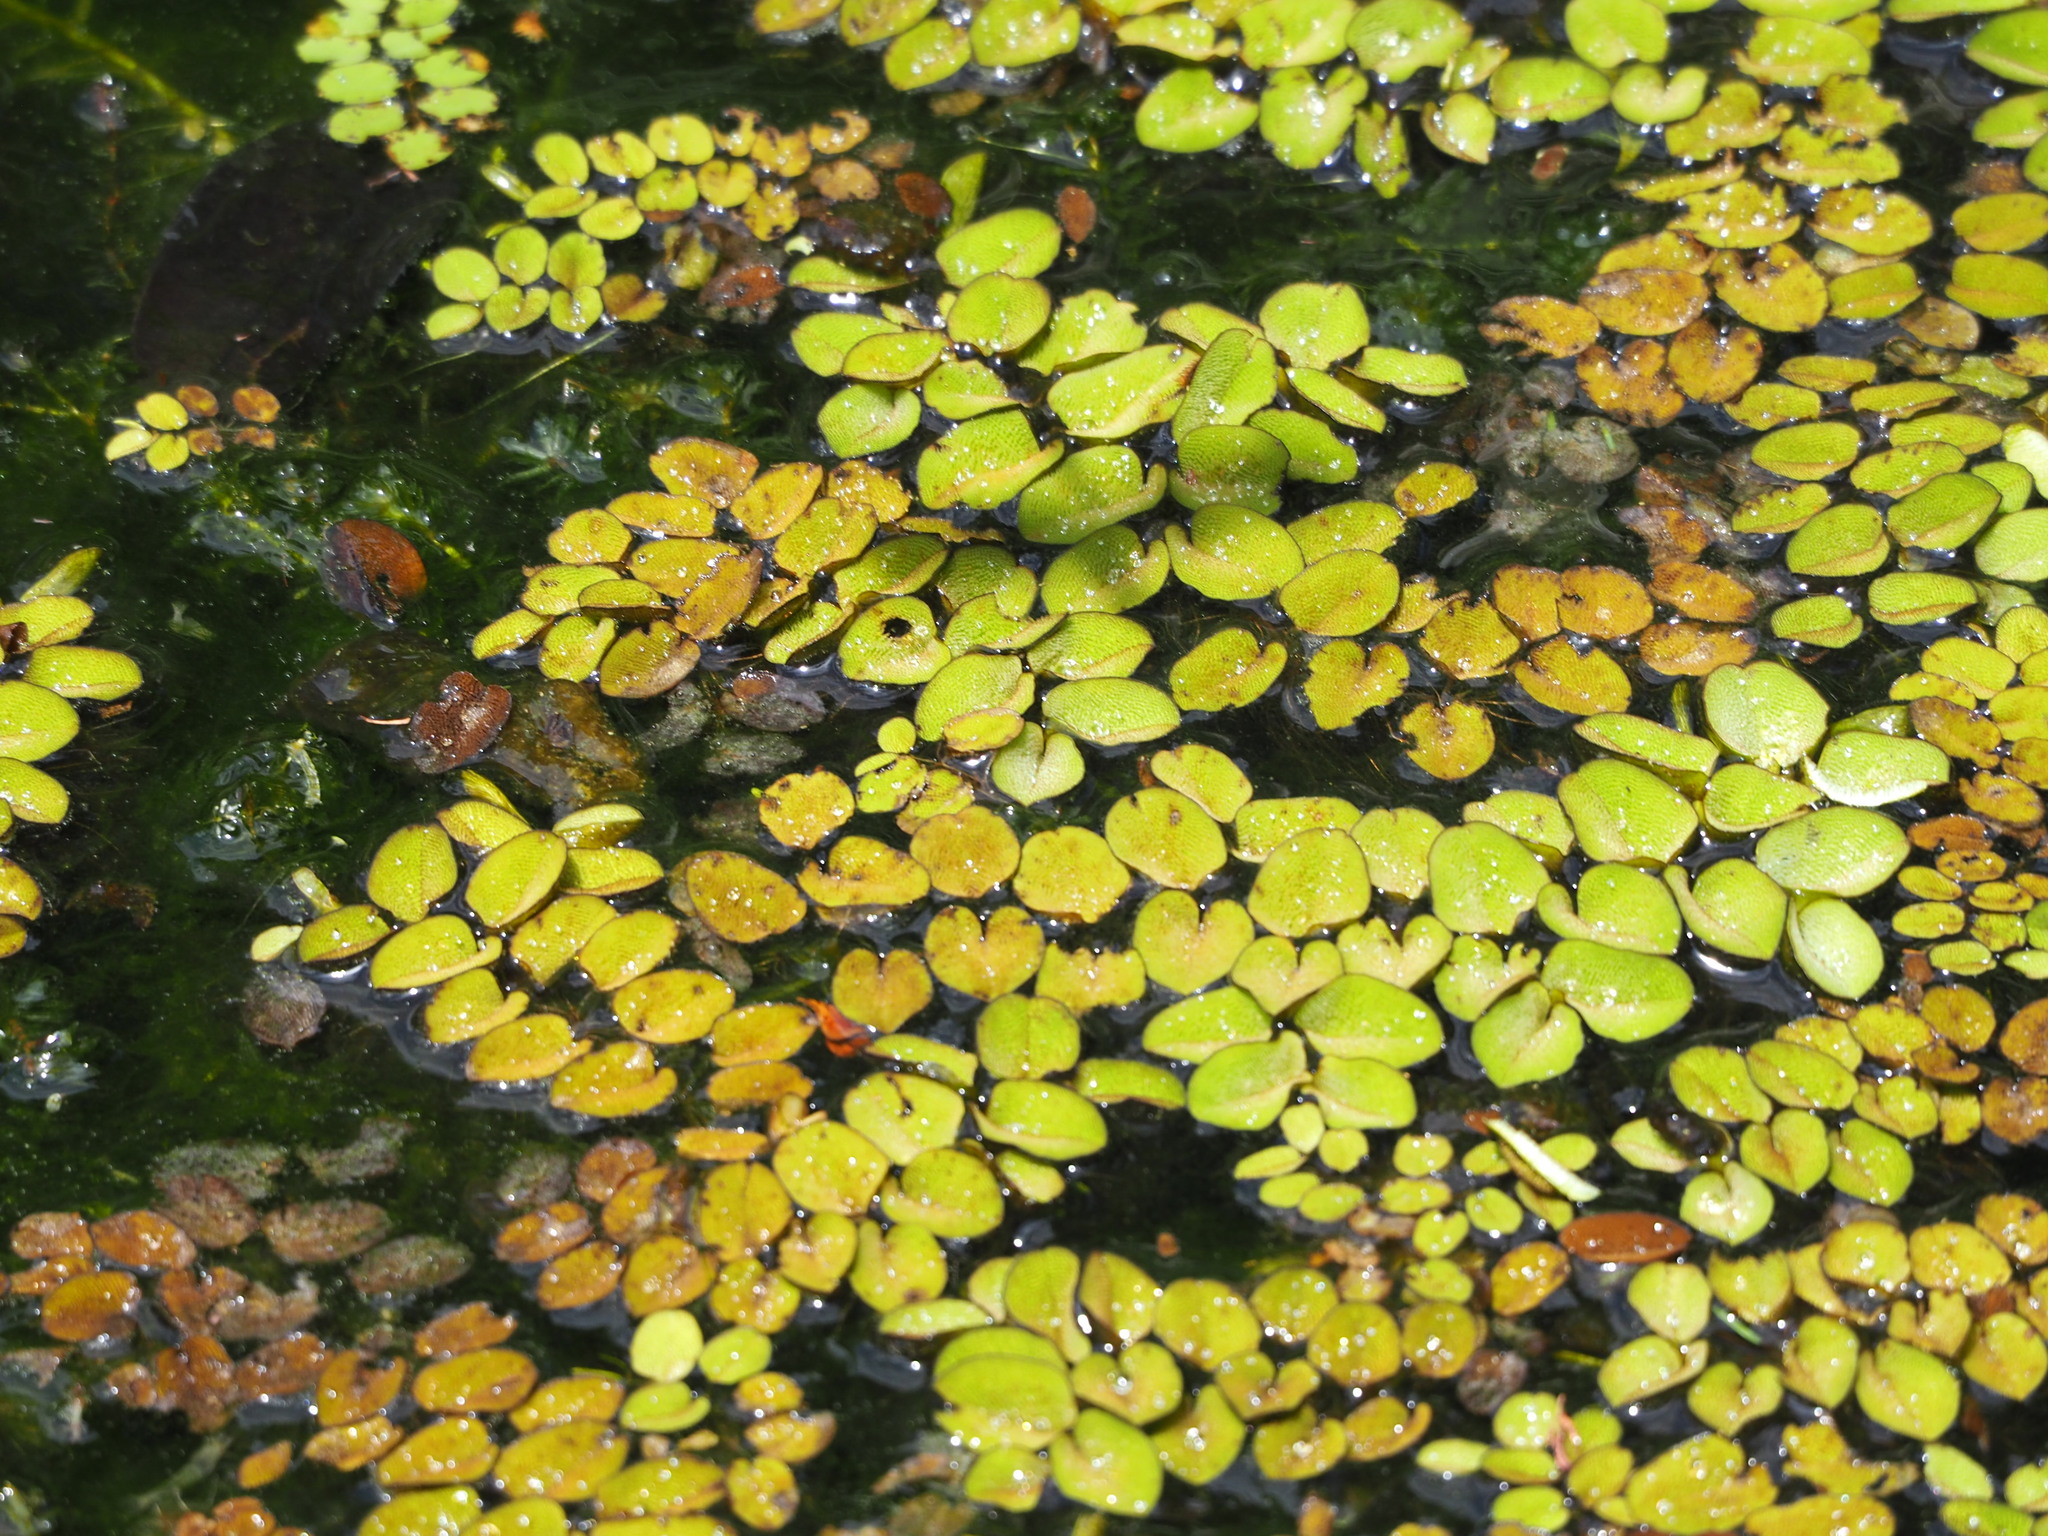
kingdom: Plantae
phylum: Tracheophyta
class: Polypodiopsida
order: Salviniales
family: Salviniaceae
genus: Salvinia
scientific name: Salvinia molesta
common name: Kariba weed
